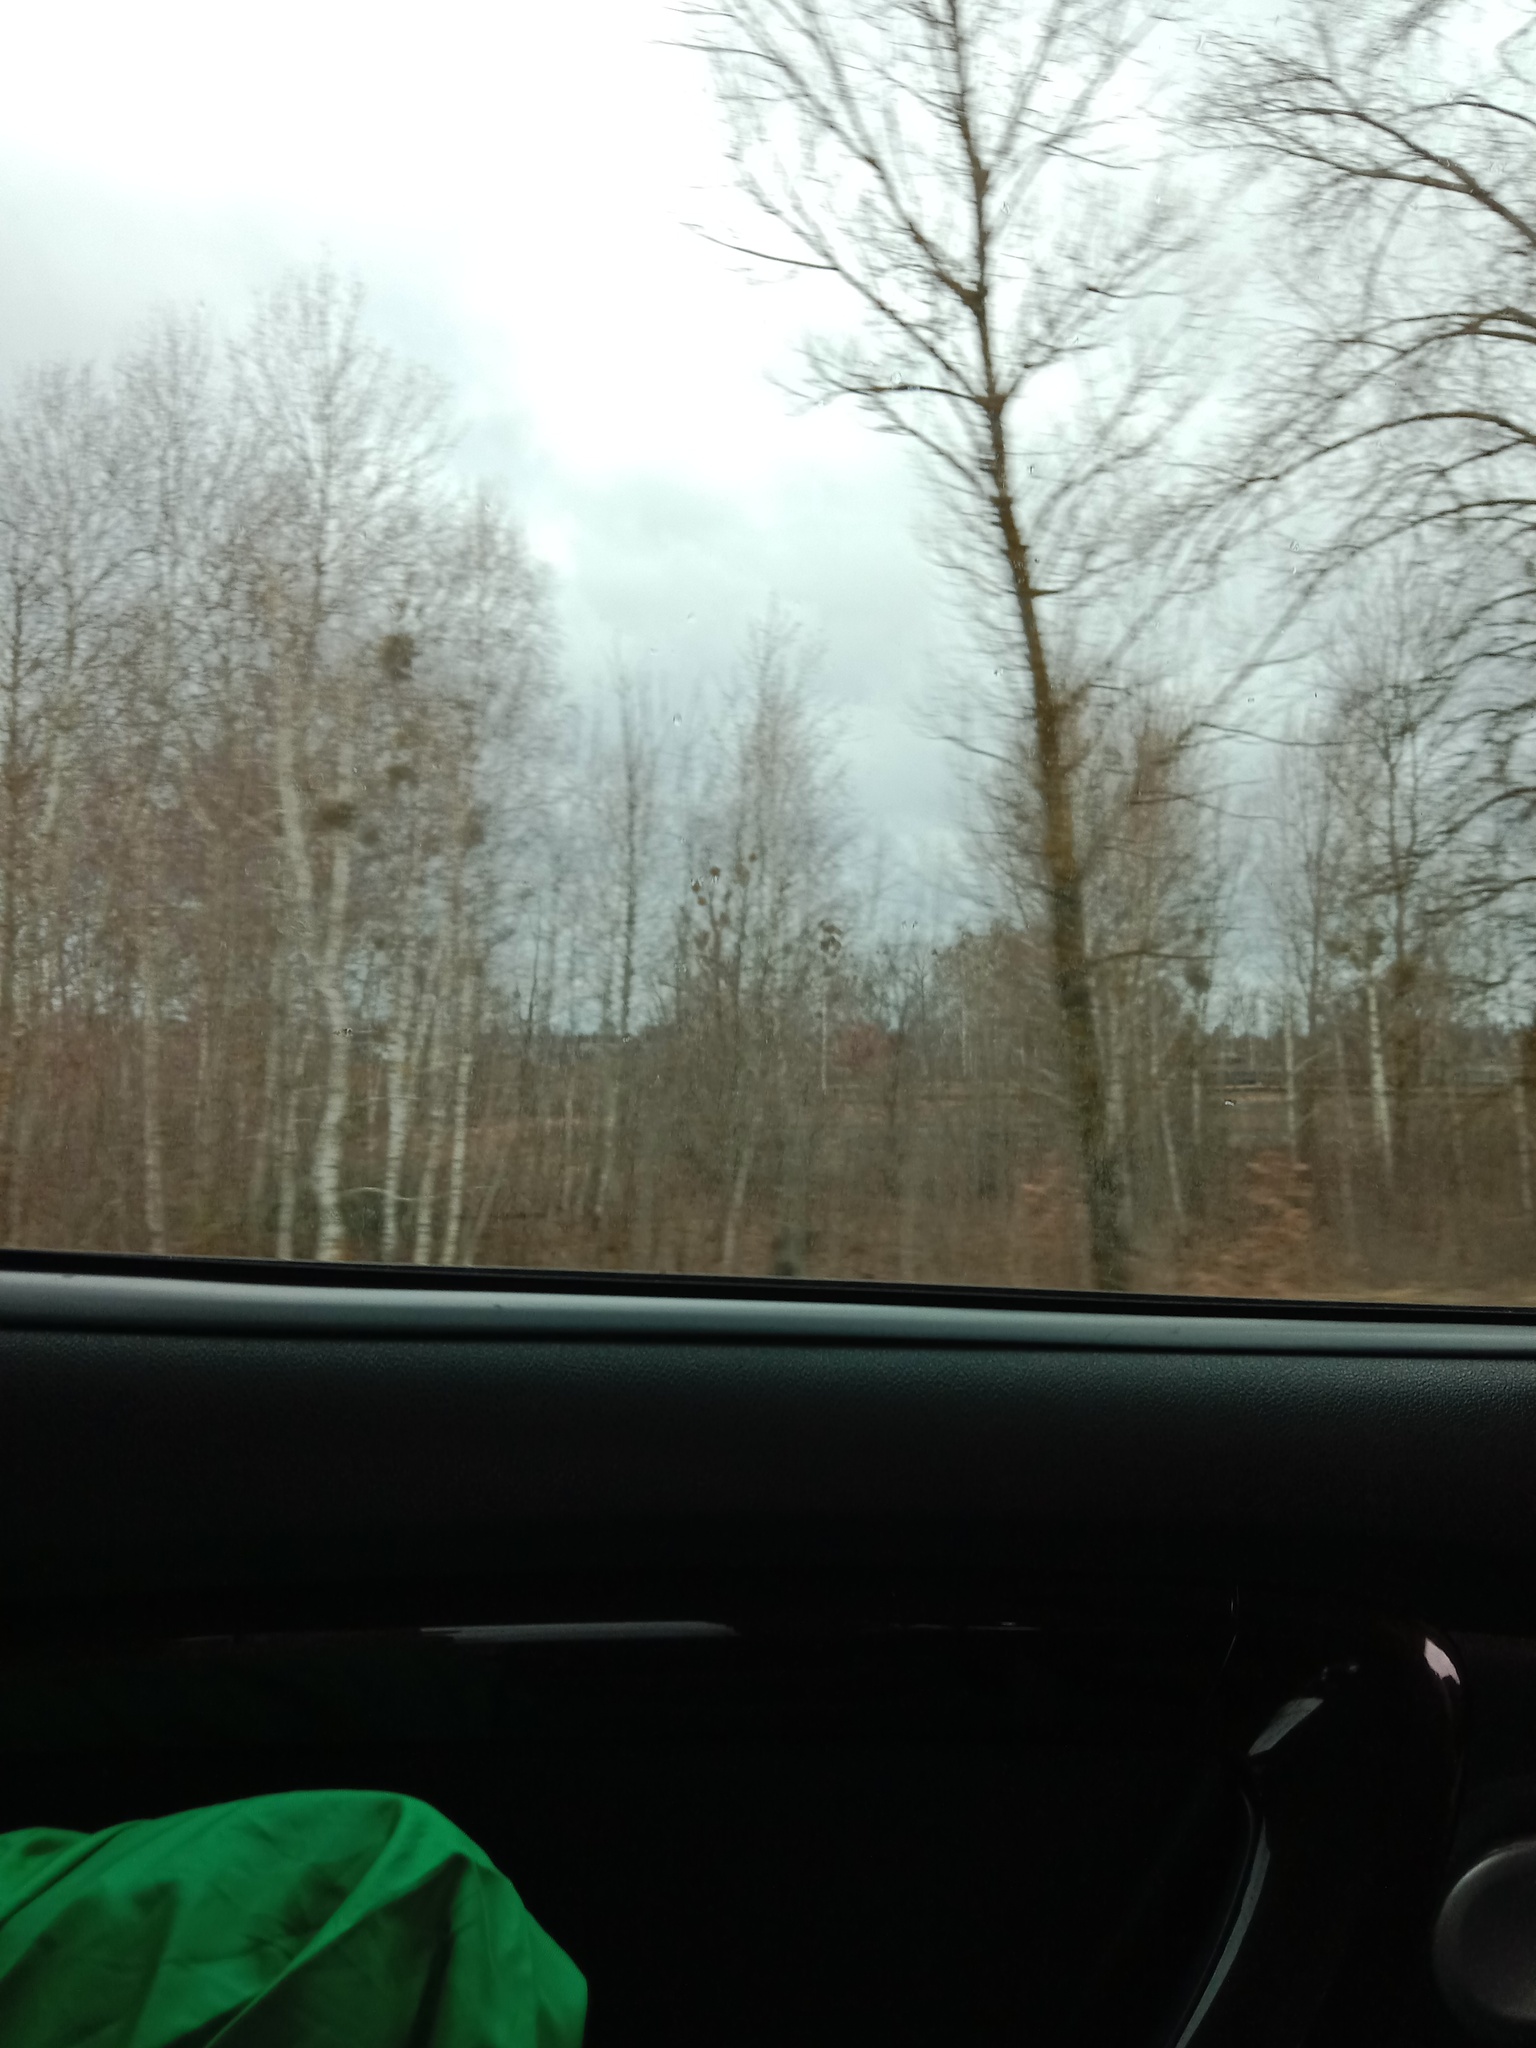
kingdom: Plantae
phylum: Tracheophyta
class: Magnoliopsida
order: Santalales
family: Viscaceae
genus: Viscum
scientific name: Viscum album
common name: Mistletoe
